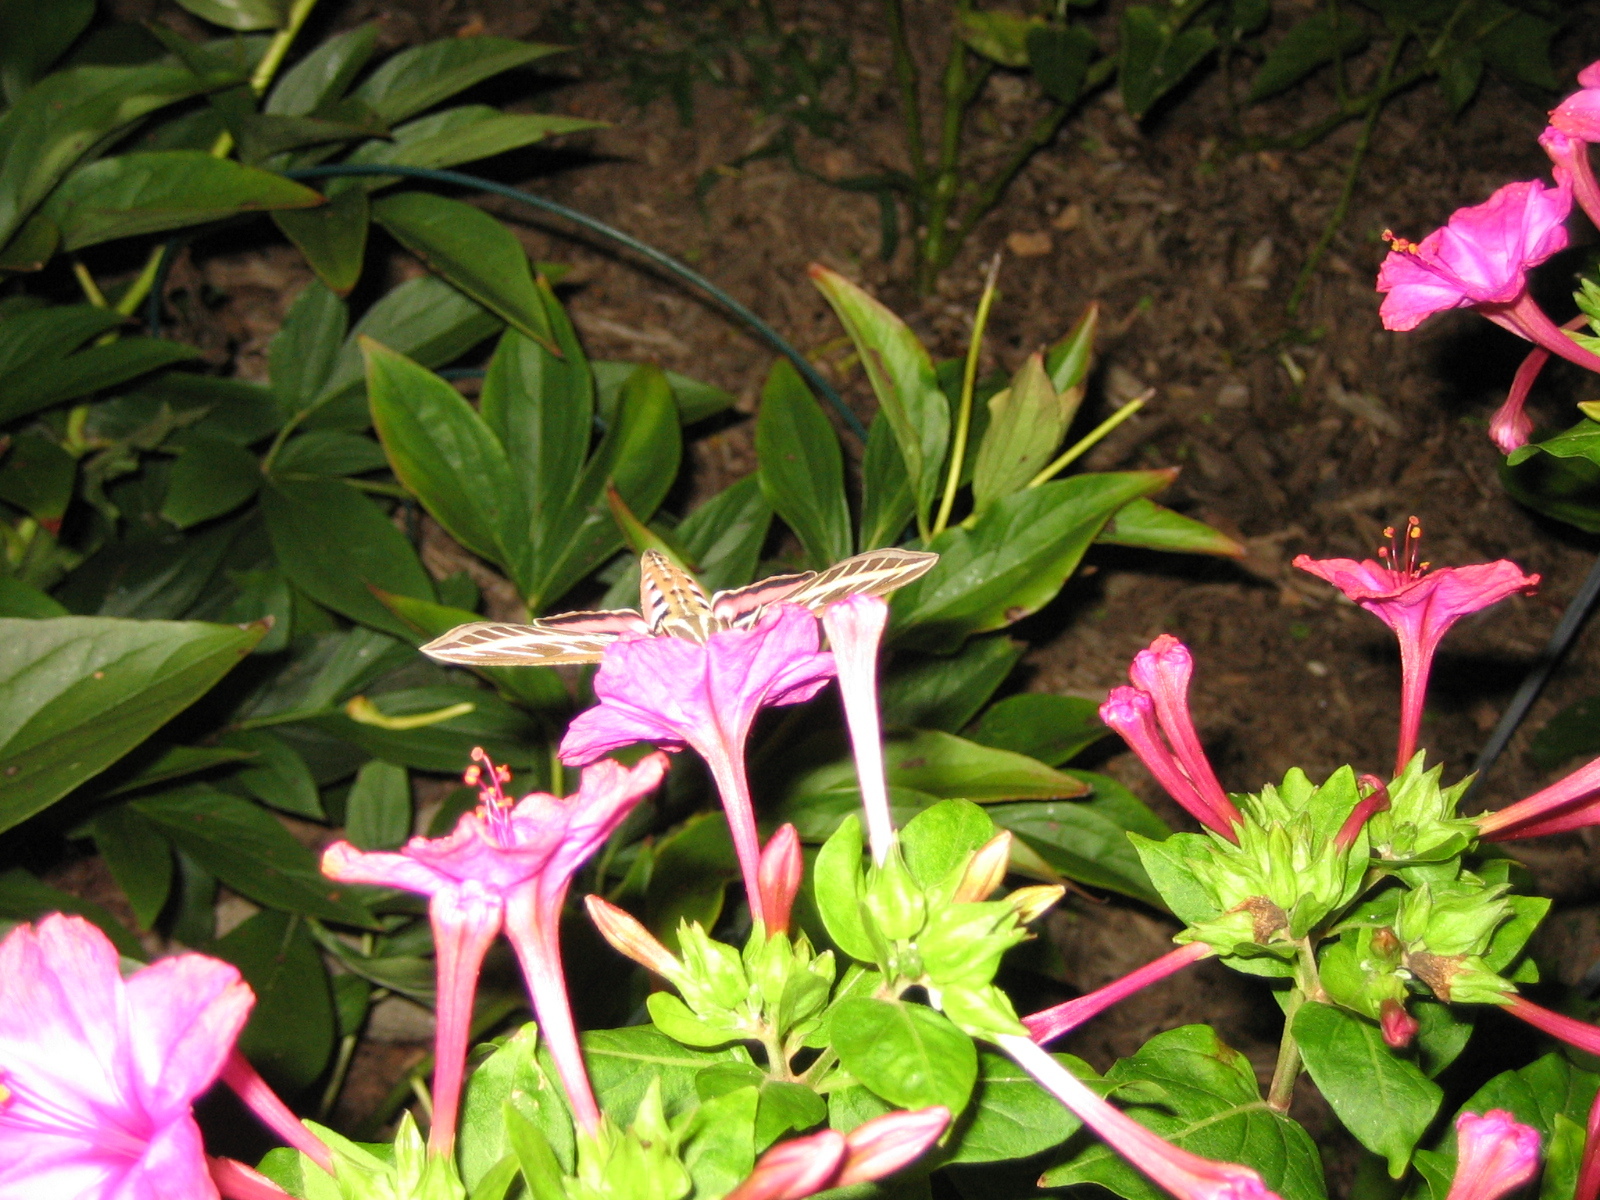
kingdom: Animalia
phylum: Arthropoda
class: Insecta
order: Lepidoptera
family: Sphingidae
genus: Hyles
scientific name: Hyles lineata
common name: White-lined sphinx
